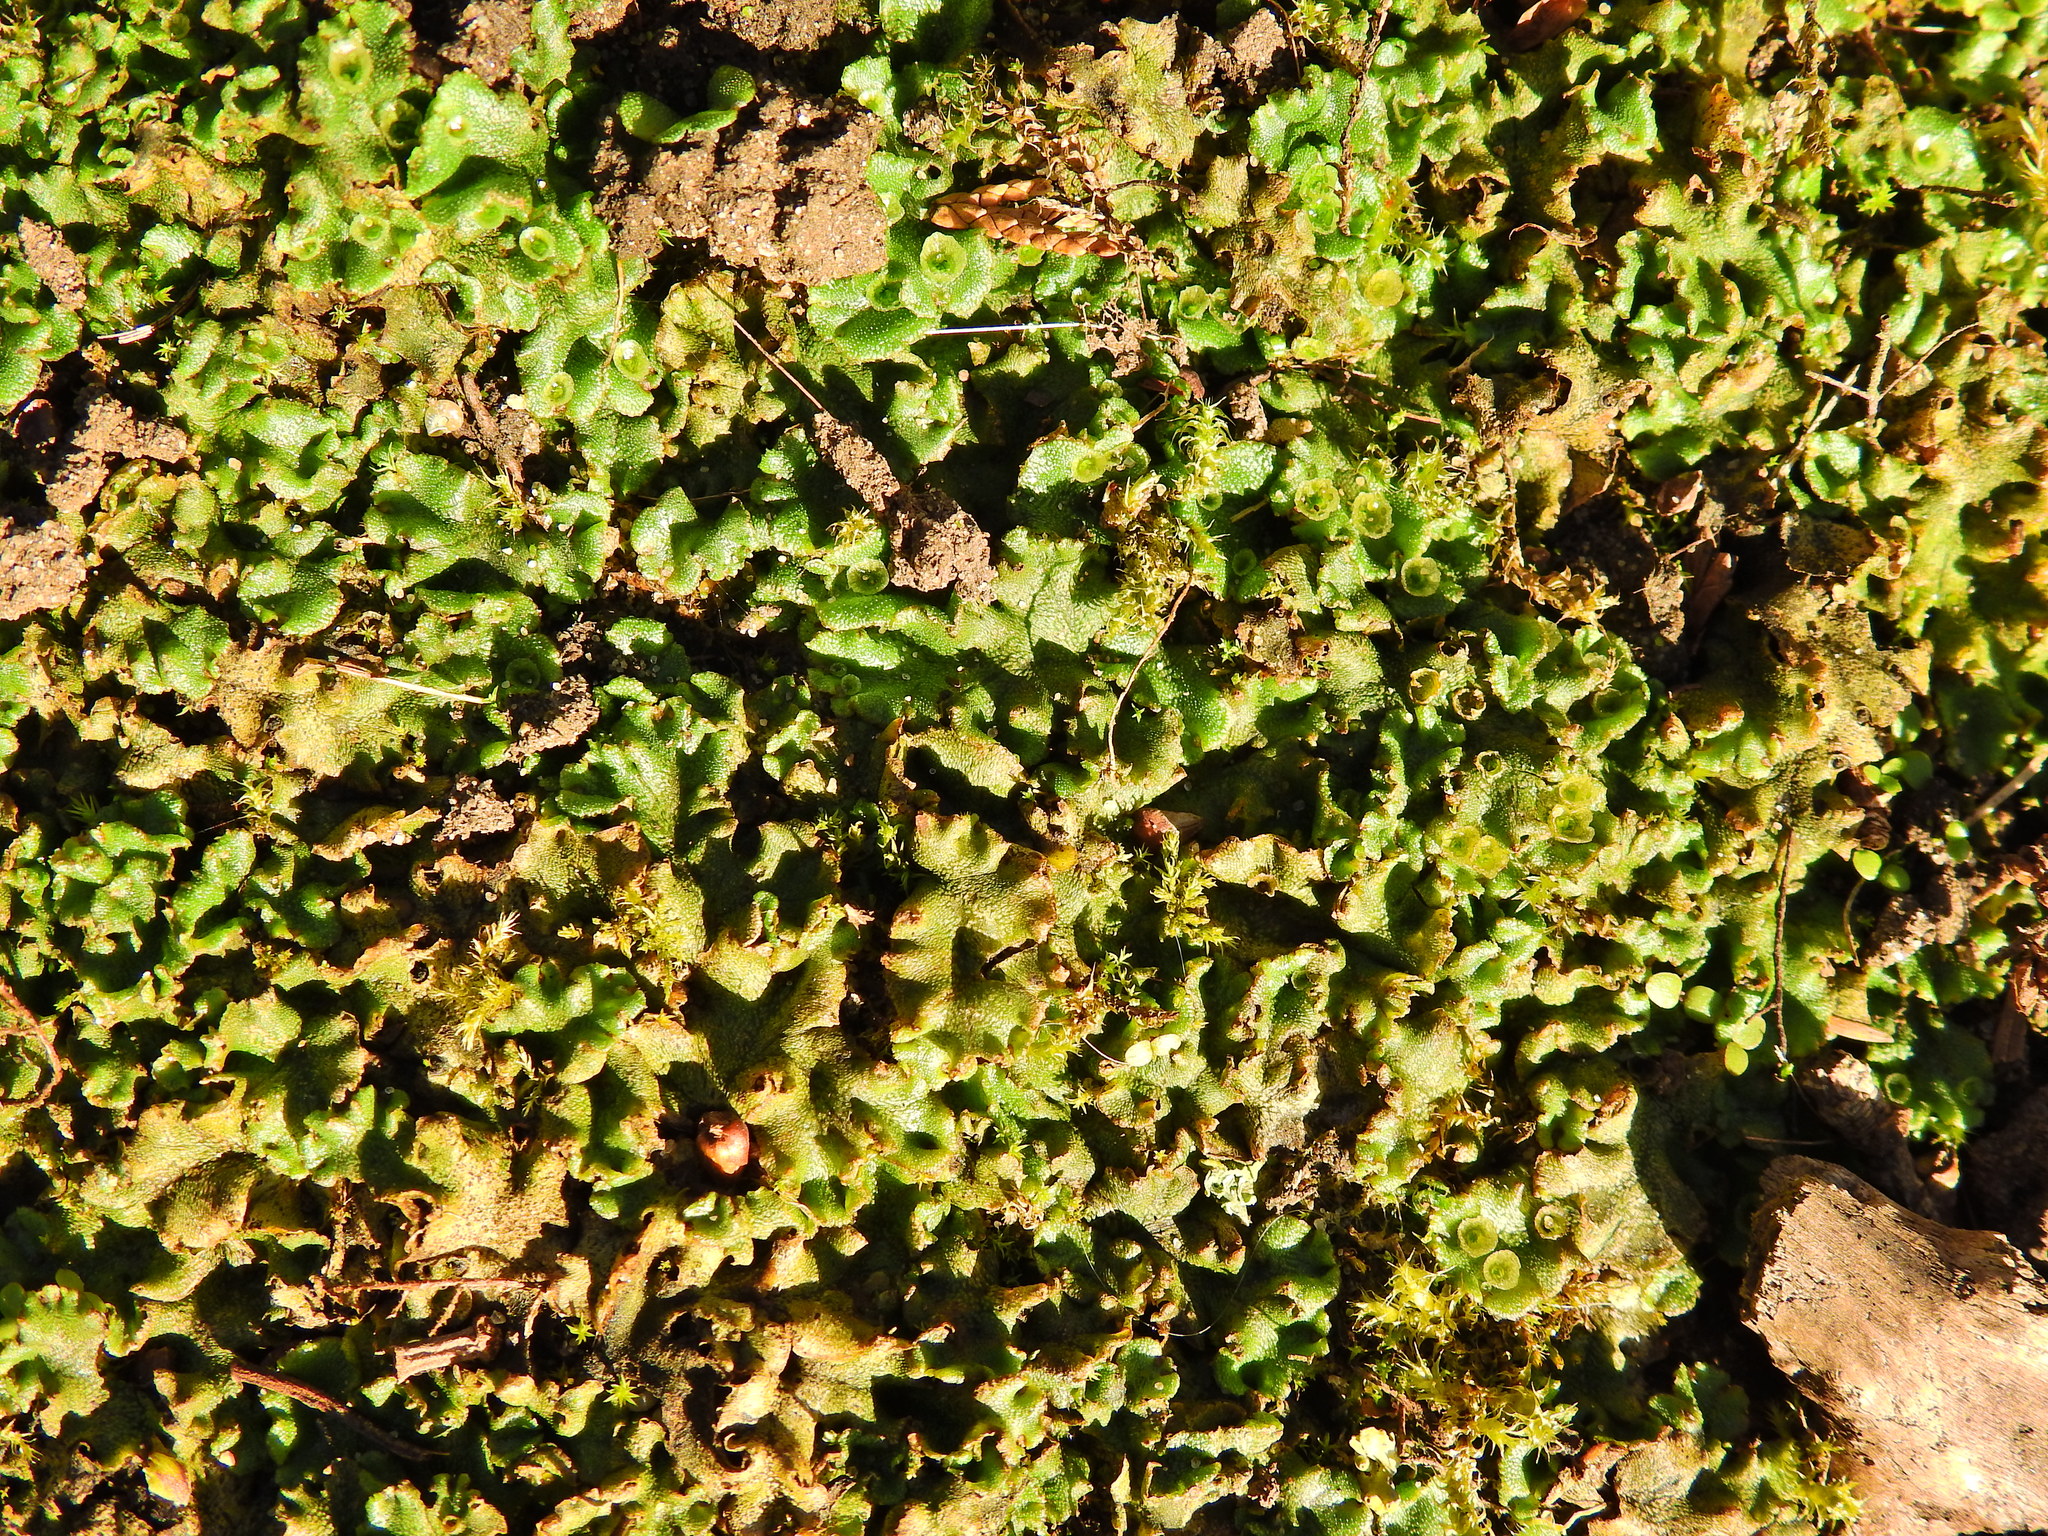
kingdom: Plantae
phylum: Marchantiophyta
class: Marchantiopsida
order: Marchantiales
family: Marchantiaceae
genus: Marchantia
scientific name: Marchantia polymorpha
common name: Common liverwort
